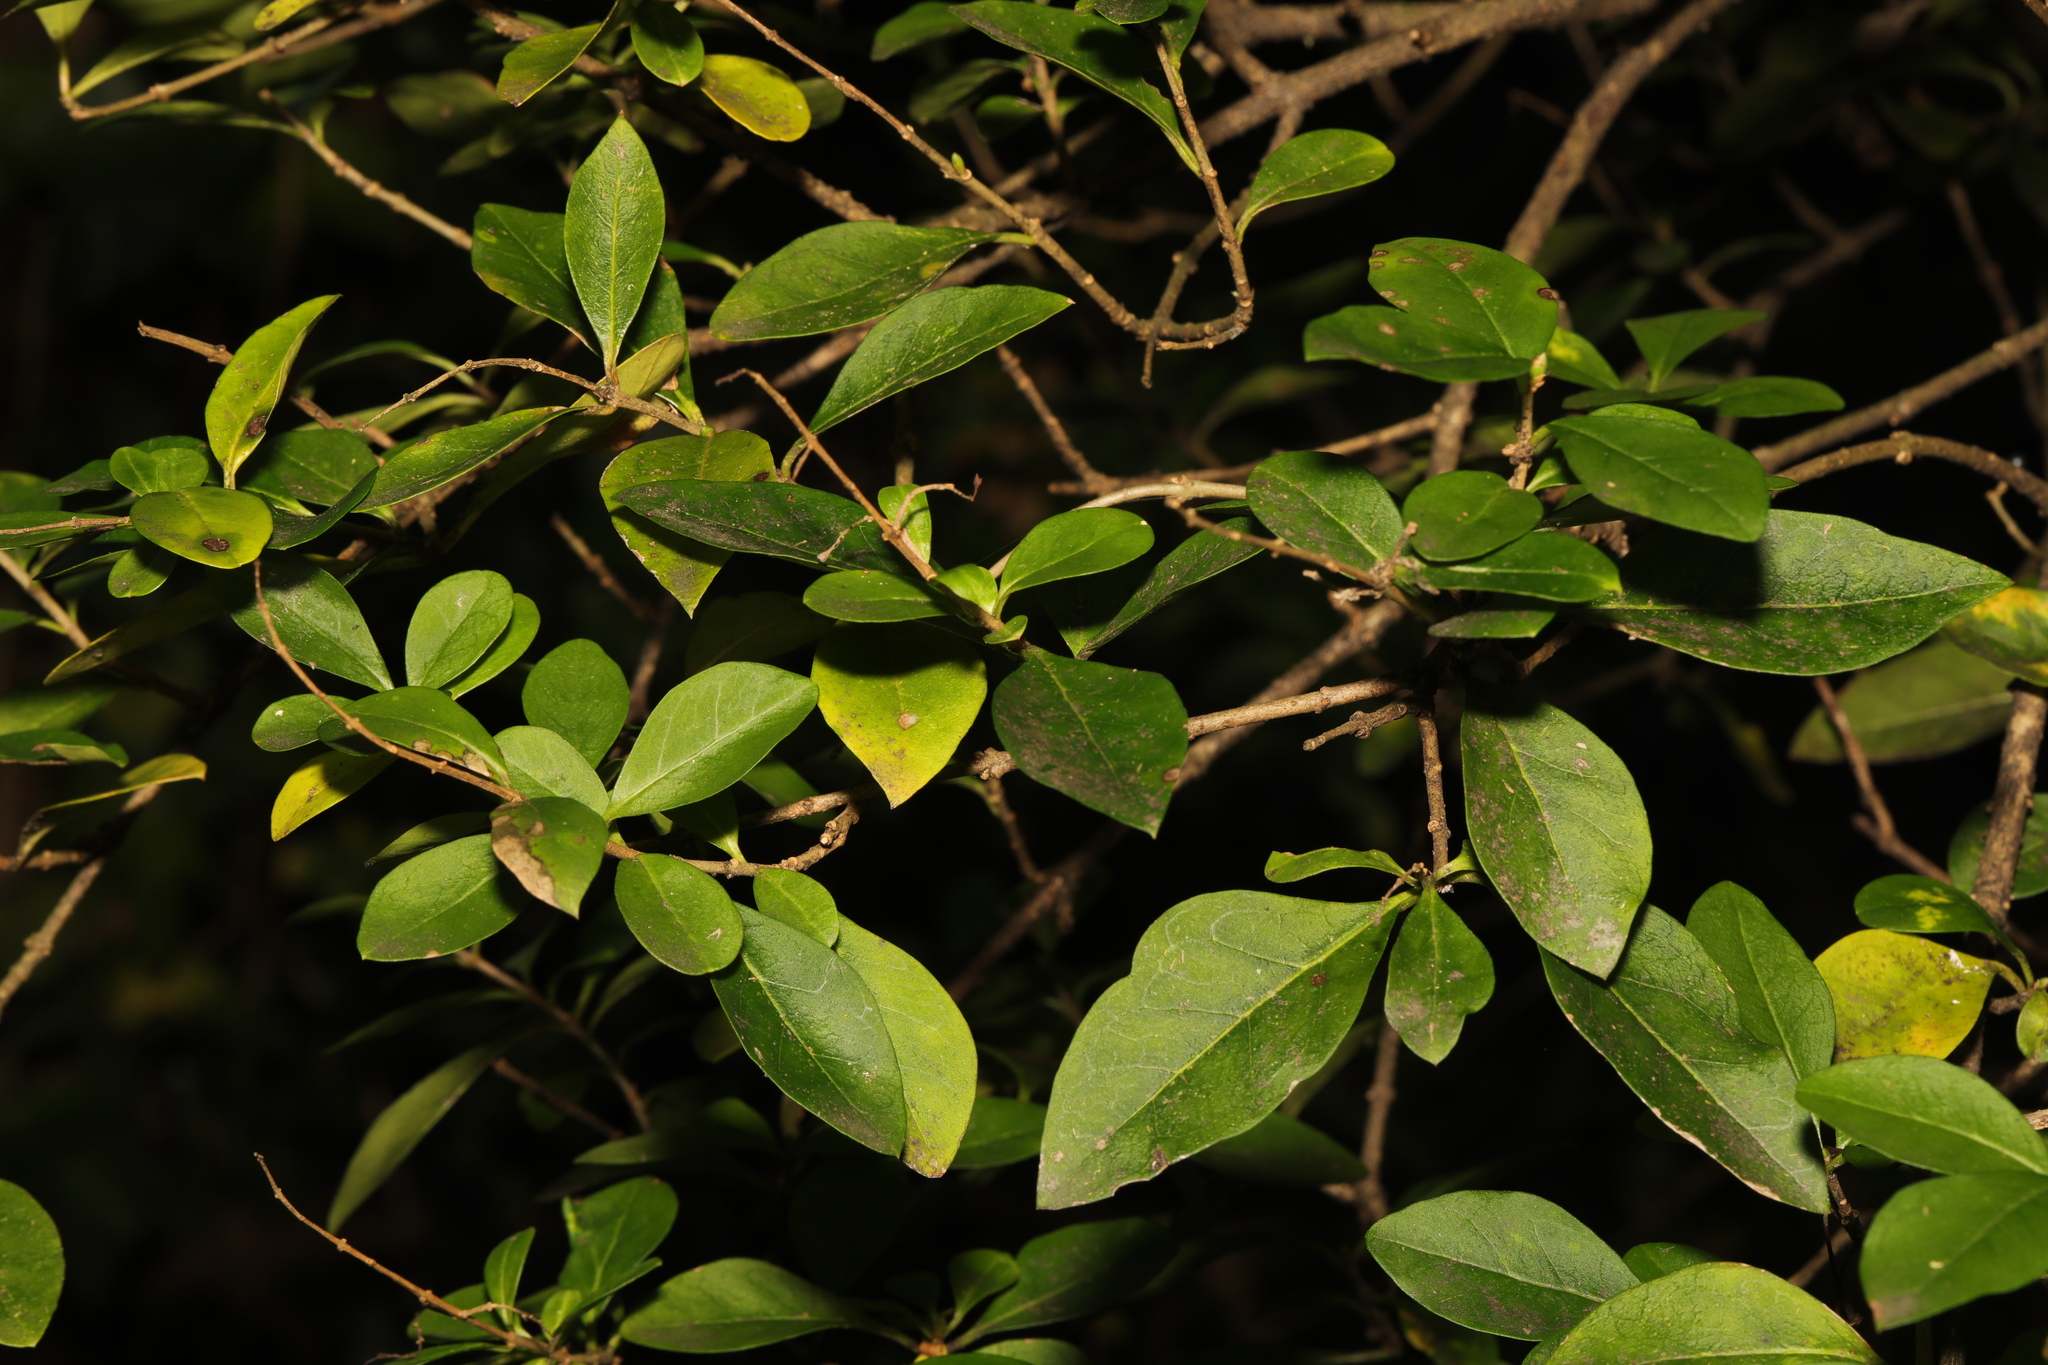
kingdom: Plantae
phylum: Tracheophyta
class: Magnoliopsida
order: Lamiales
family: Oleaceae
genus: Ligustrum
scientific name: Ligustrum ovalifolium
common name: California privet
